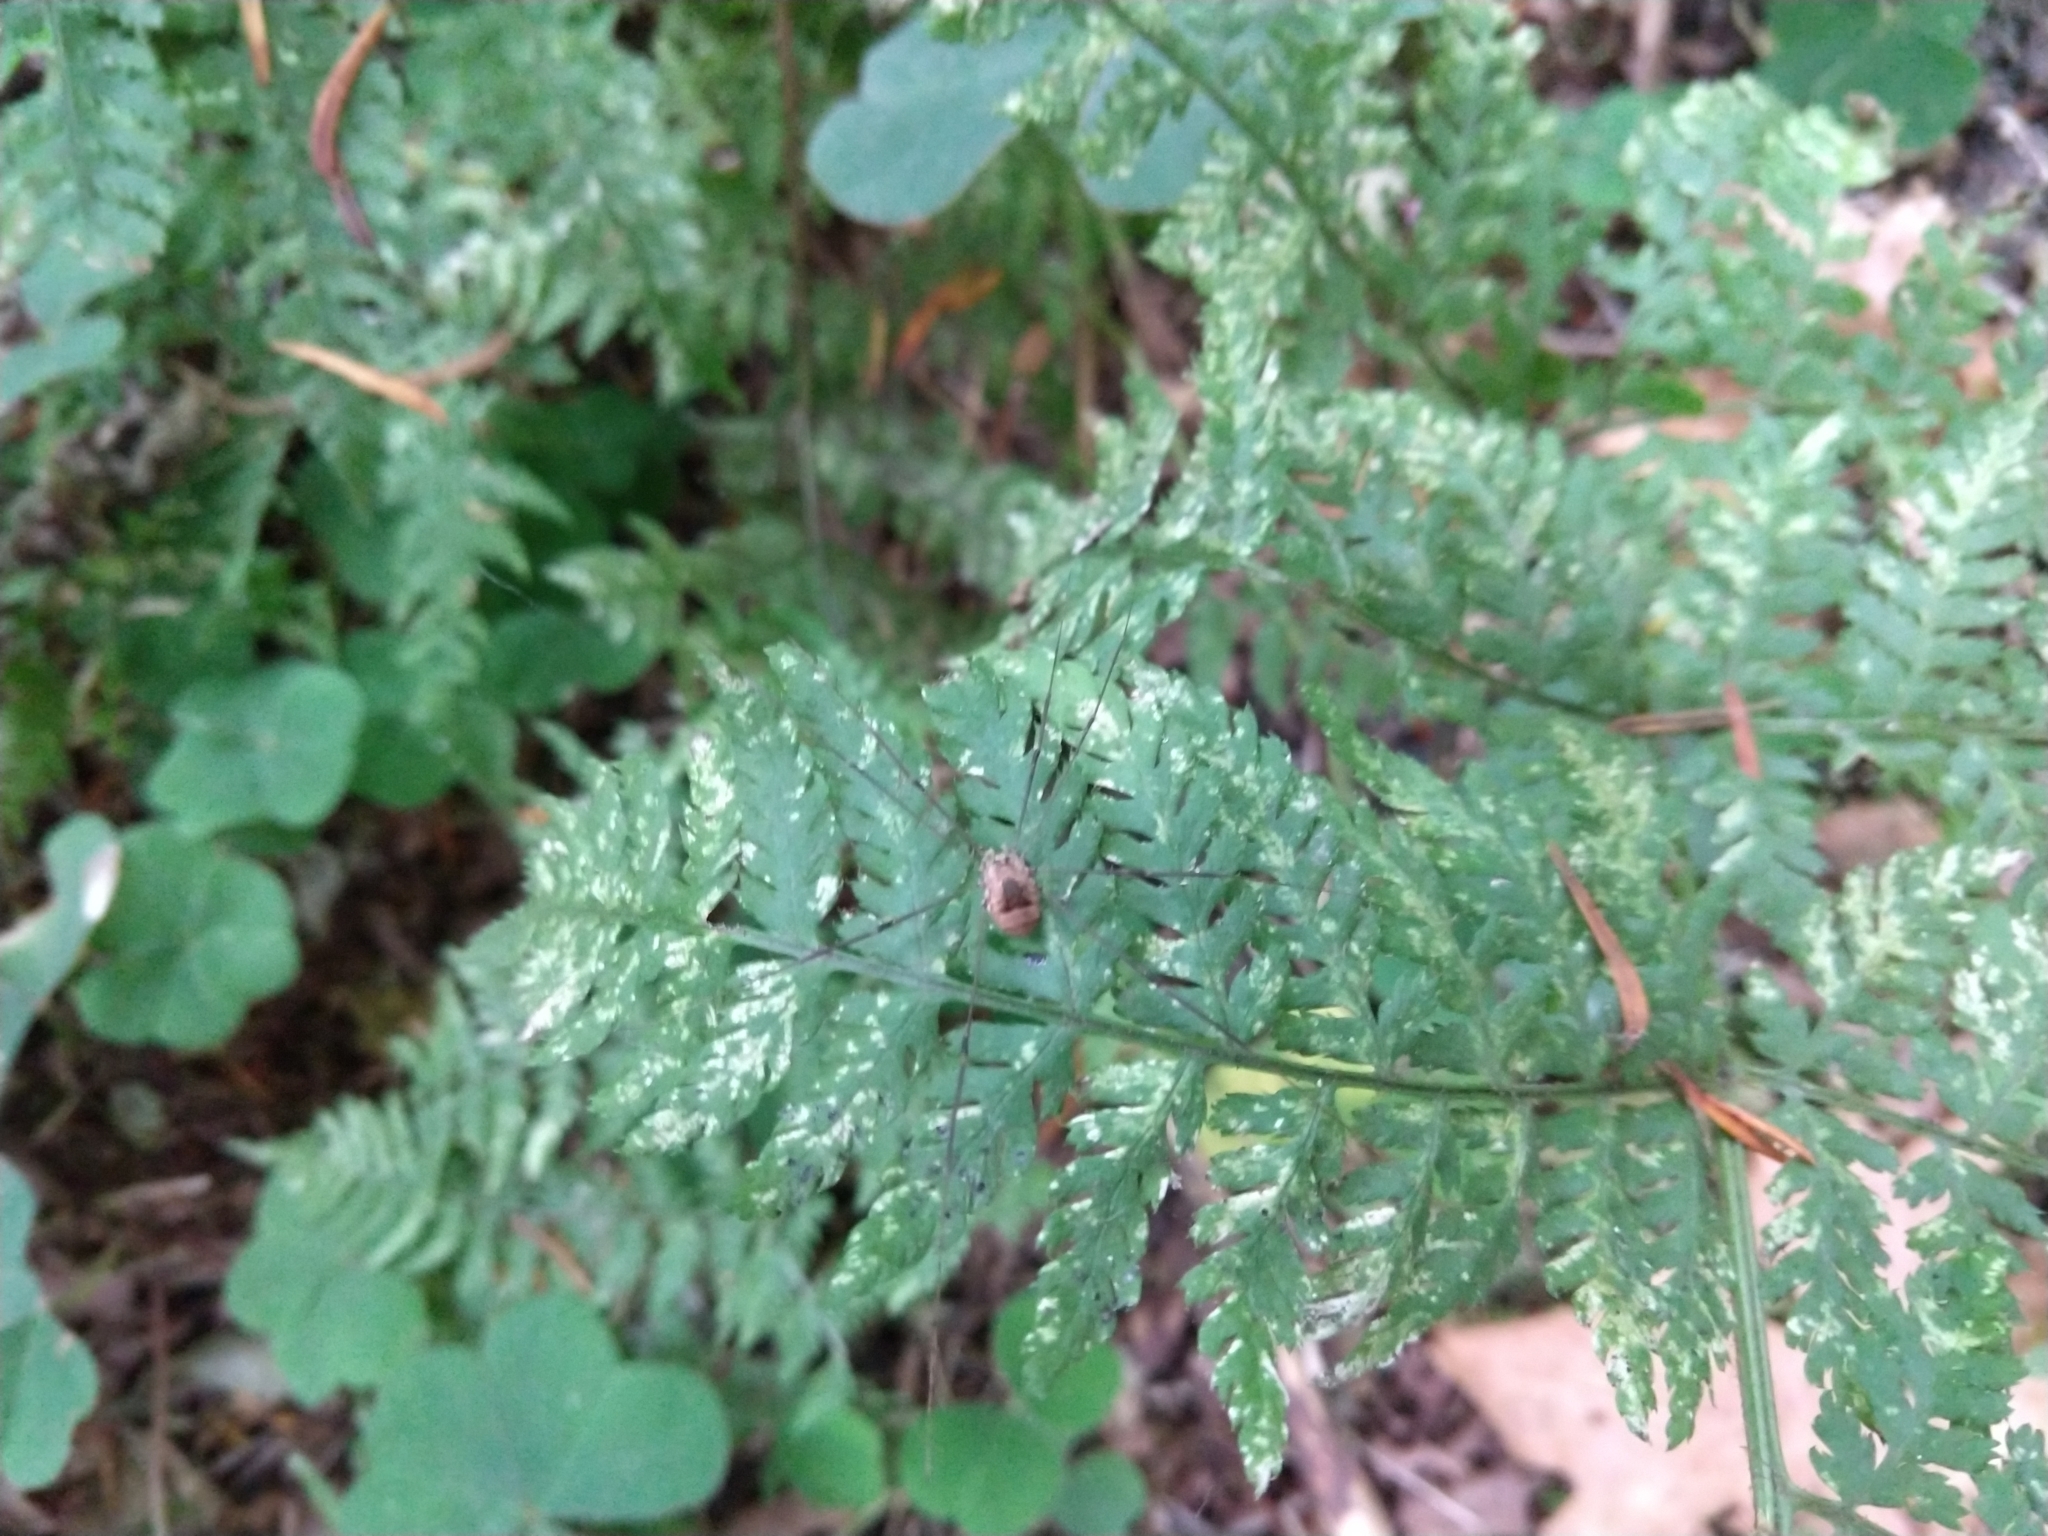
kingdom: Animalia
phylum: Arthropoda
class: Arachnida
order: Opiliones
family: Sclerosomatidae
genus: Leiobunum
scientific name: Leiobunum blackwalli
